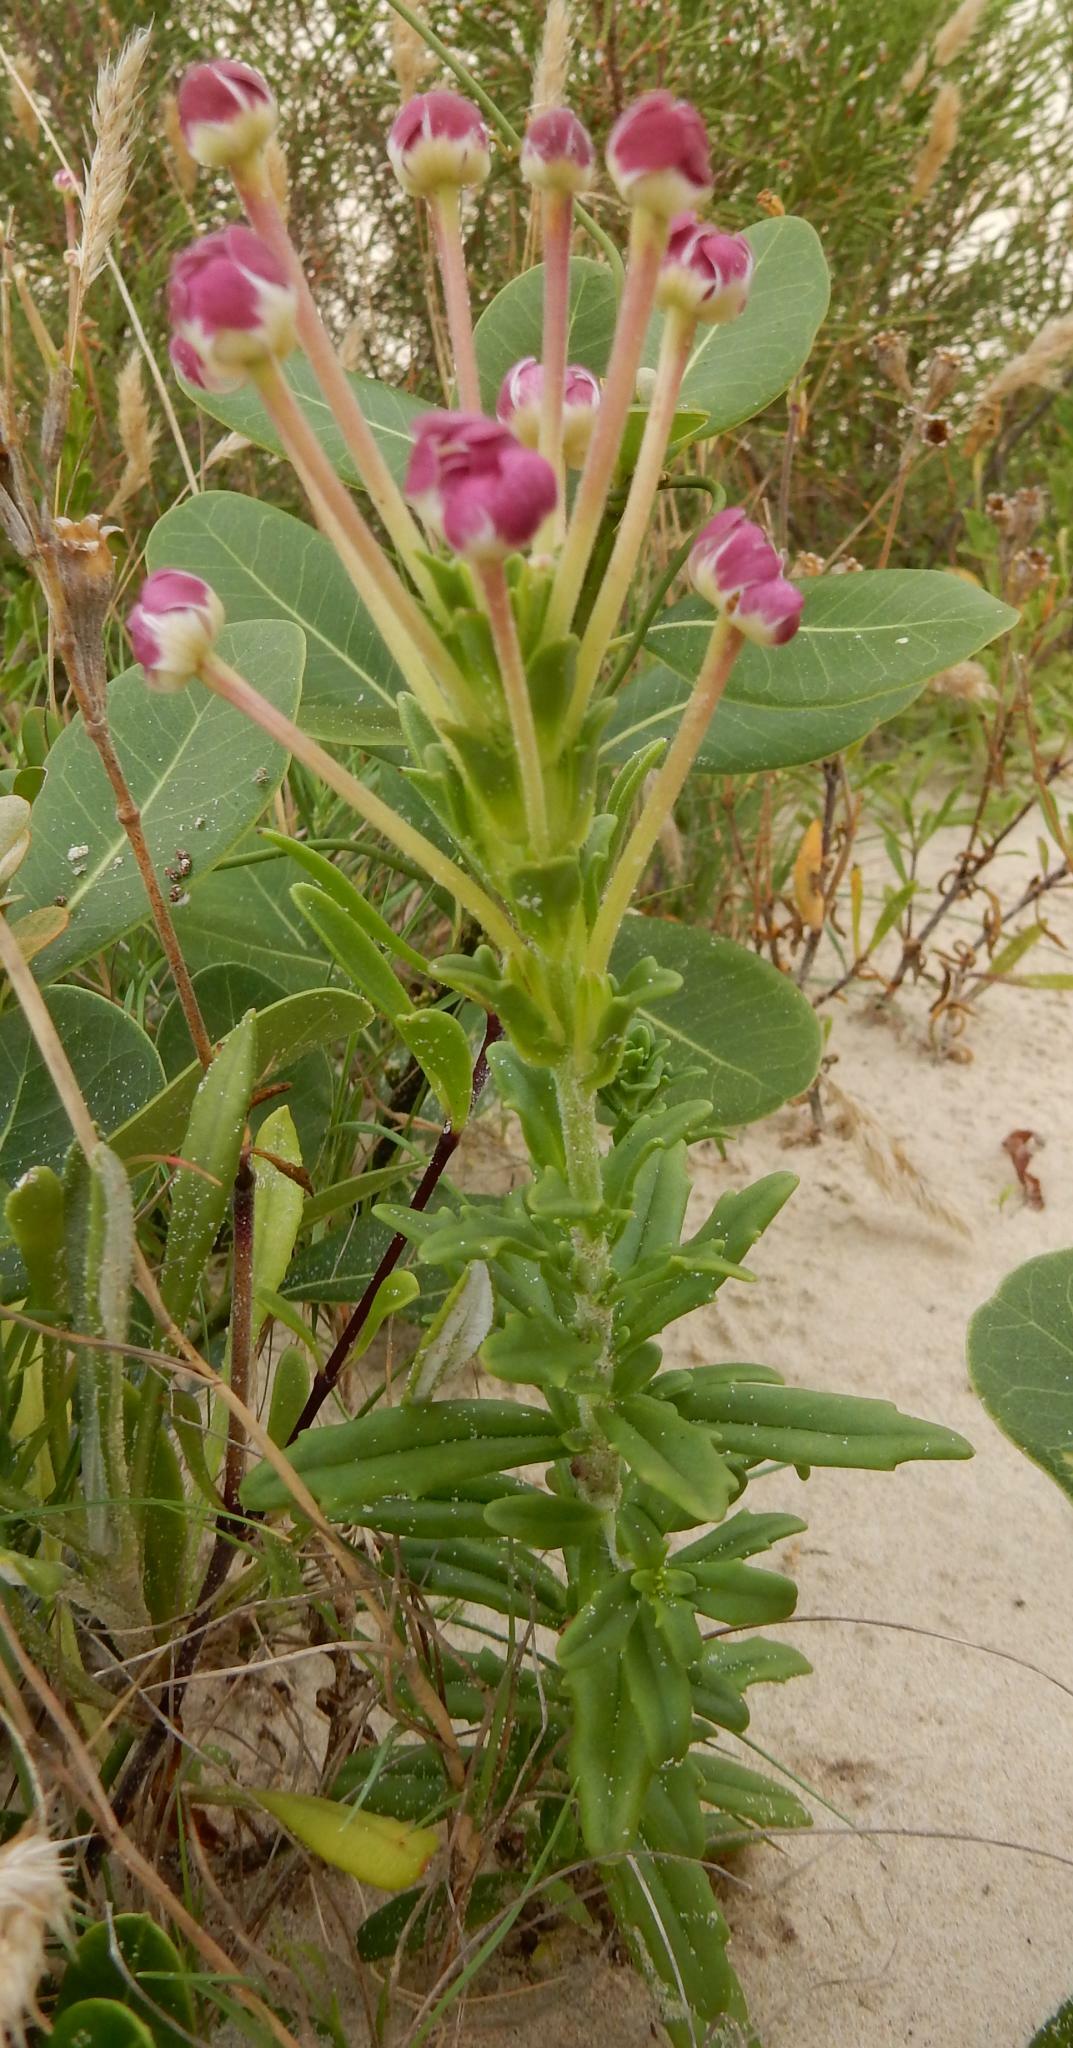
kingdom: Plantae
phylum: Tracheophyta
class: Magnoliopsida
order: Lamiales
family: Scrophulariaceae
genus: Zaluzianskya
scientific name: Zaluzianskya capensis
